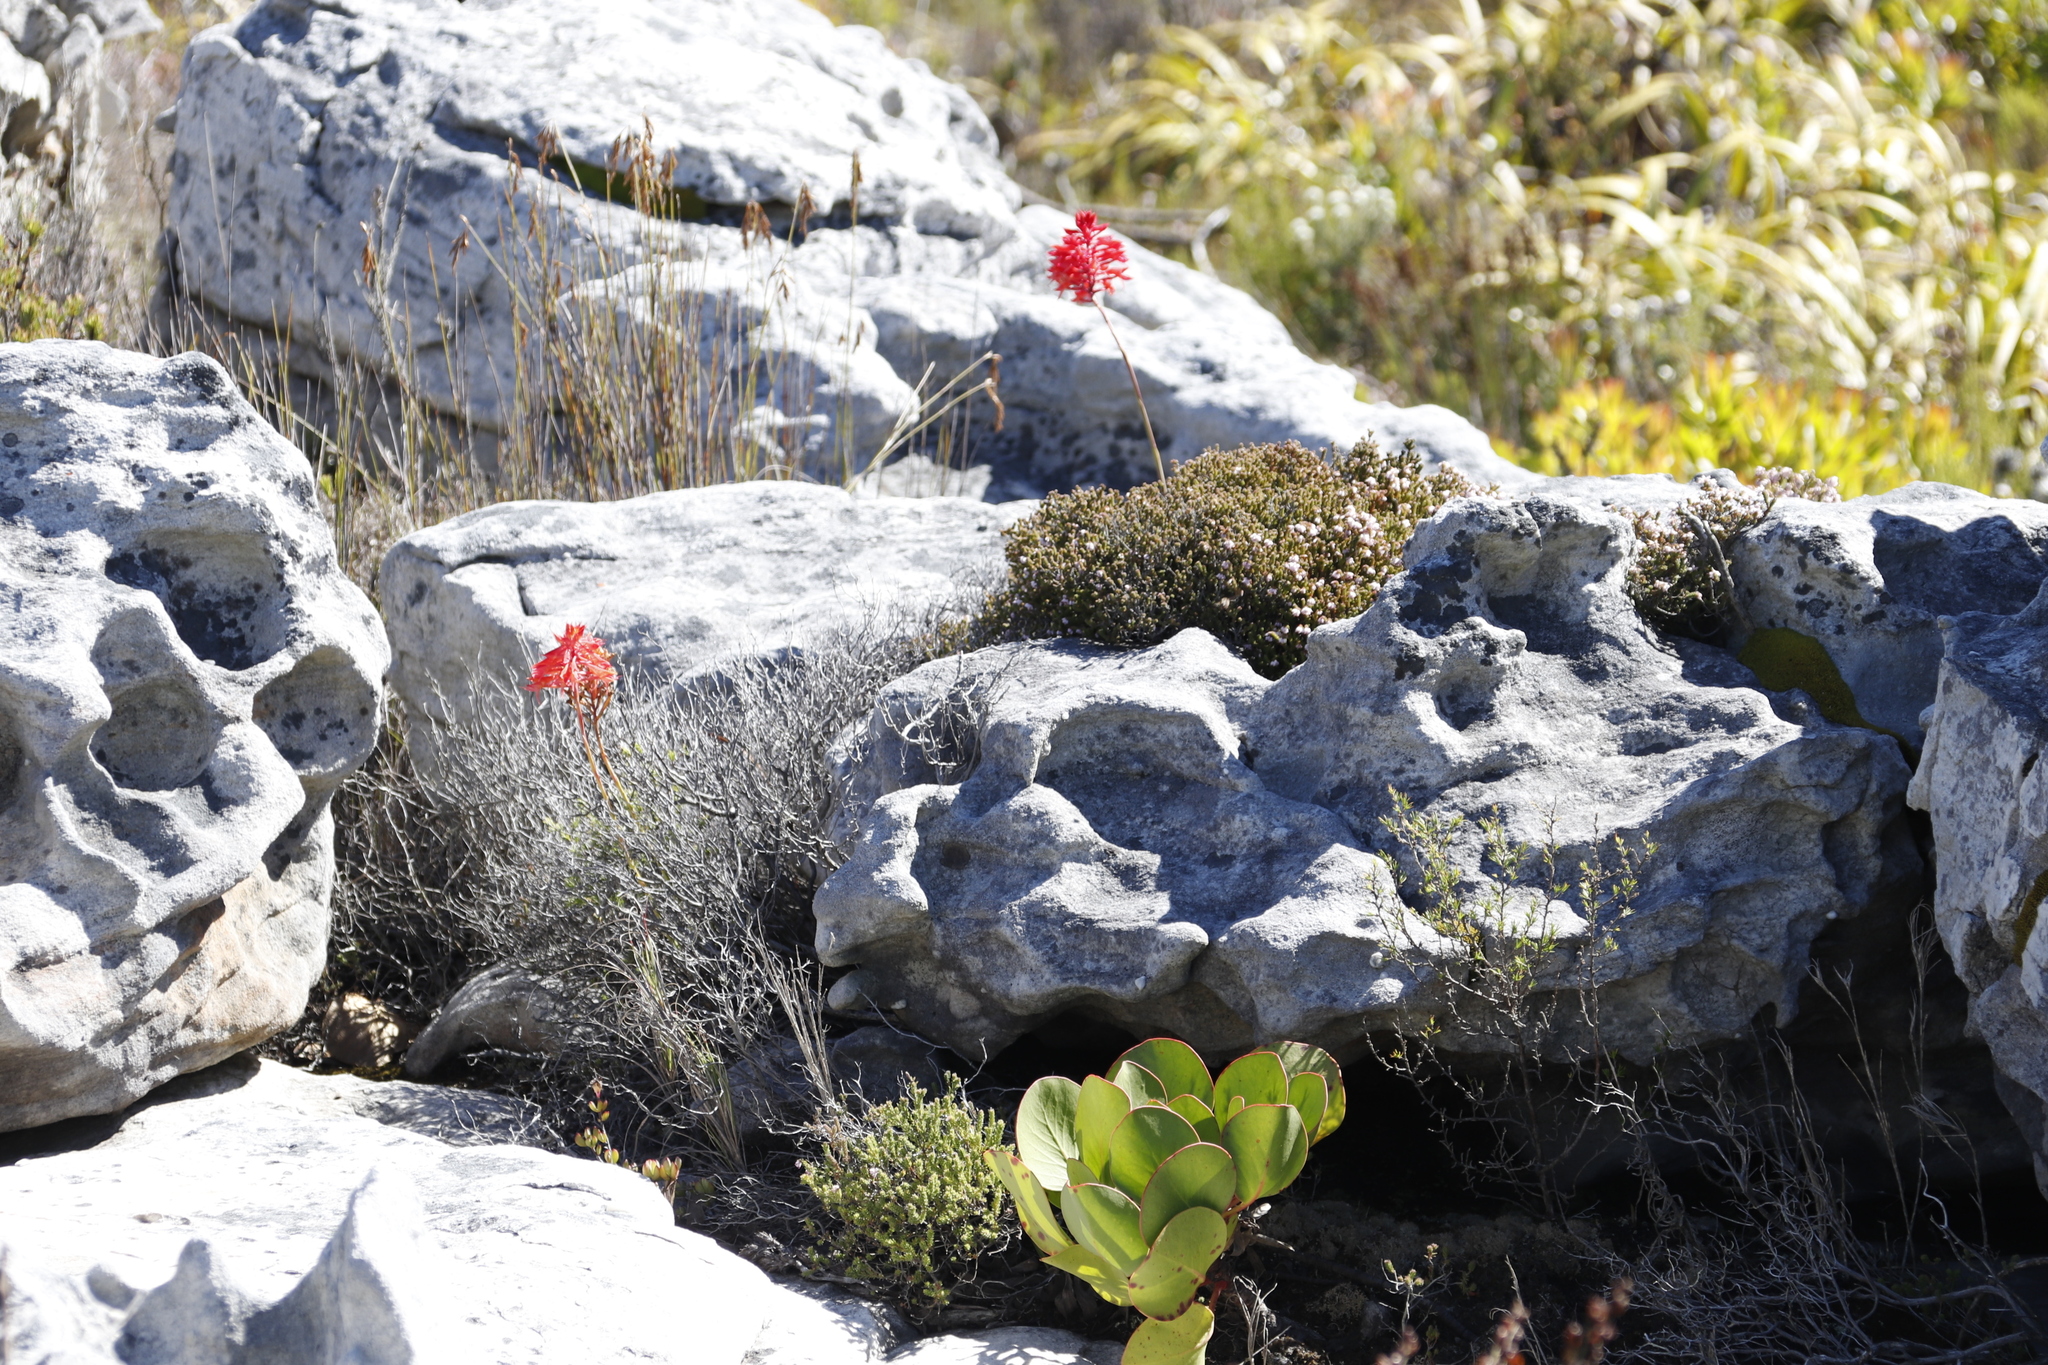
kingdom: Plantae
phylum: Tracheophyta
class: Liliopsida
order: Asparagales
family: Orchidaceae
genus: Disa
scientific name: Disa ferruginea
